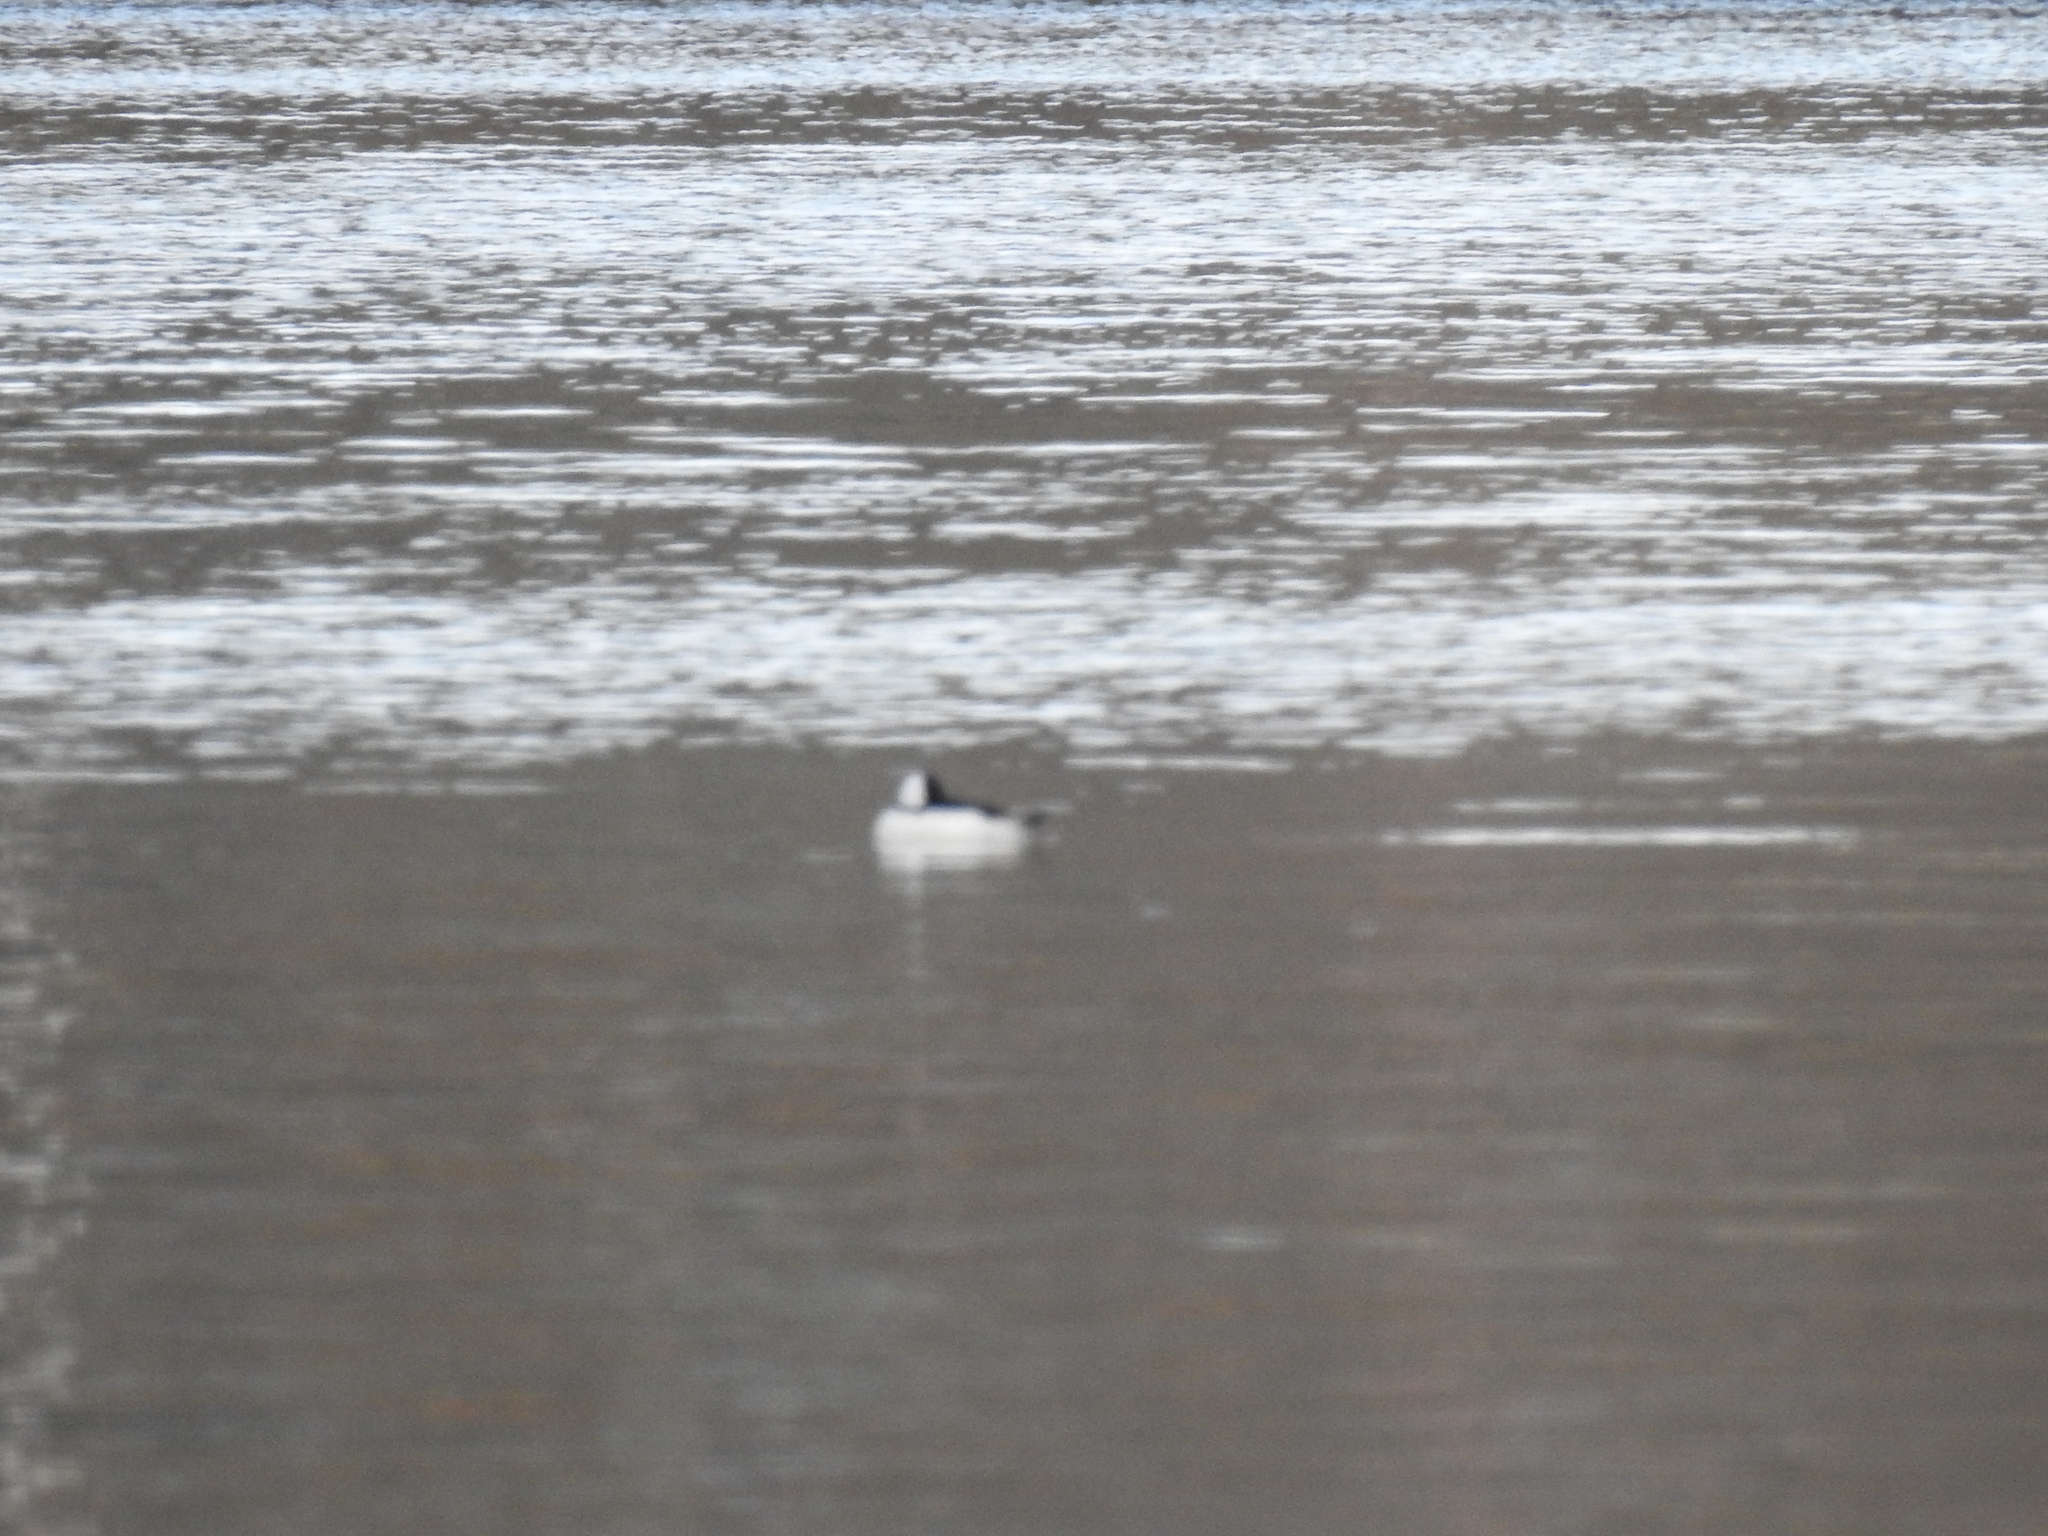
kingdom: Animalia
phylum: Chordata
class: Aves
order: Anseriformes
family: Anatidae
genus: Bucephala
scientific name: Bucephala albeola
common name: Bufflehead
